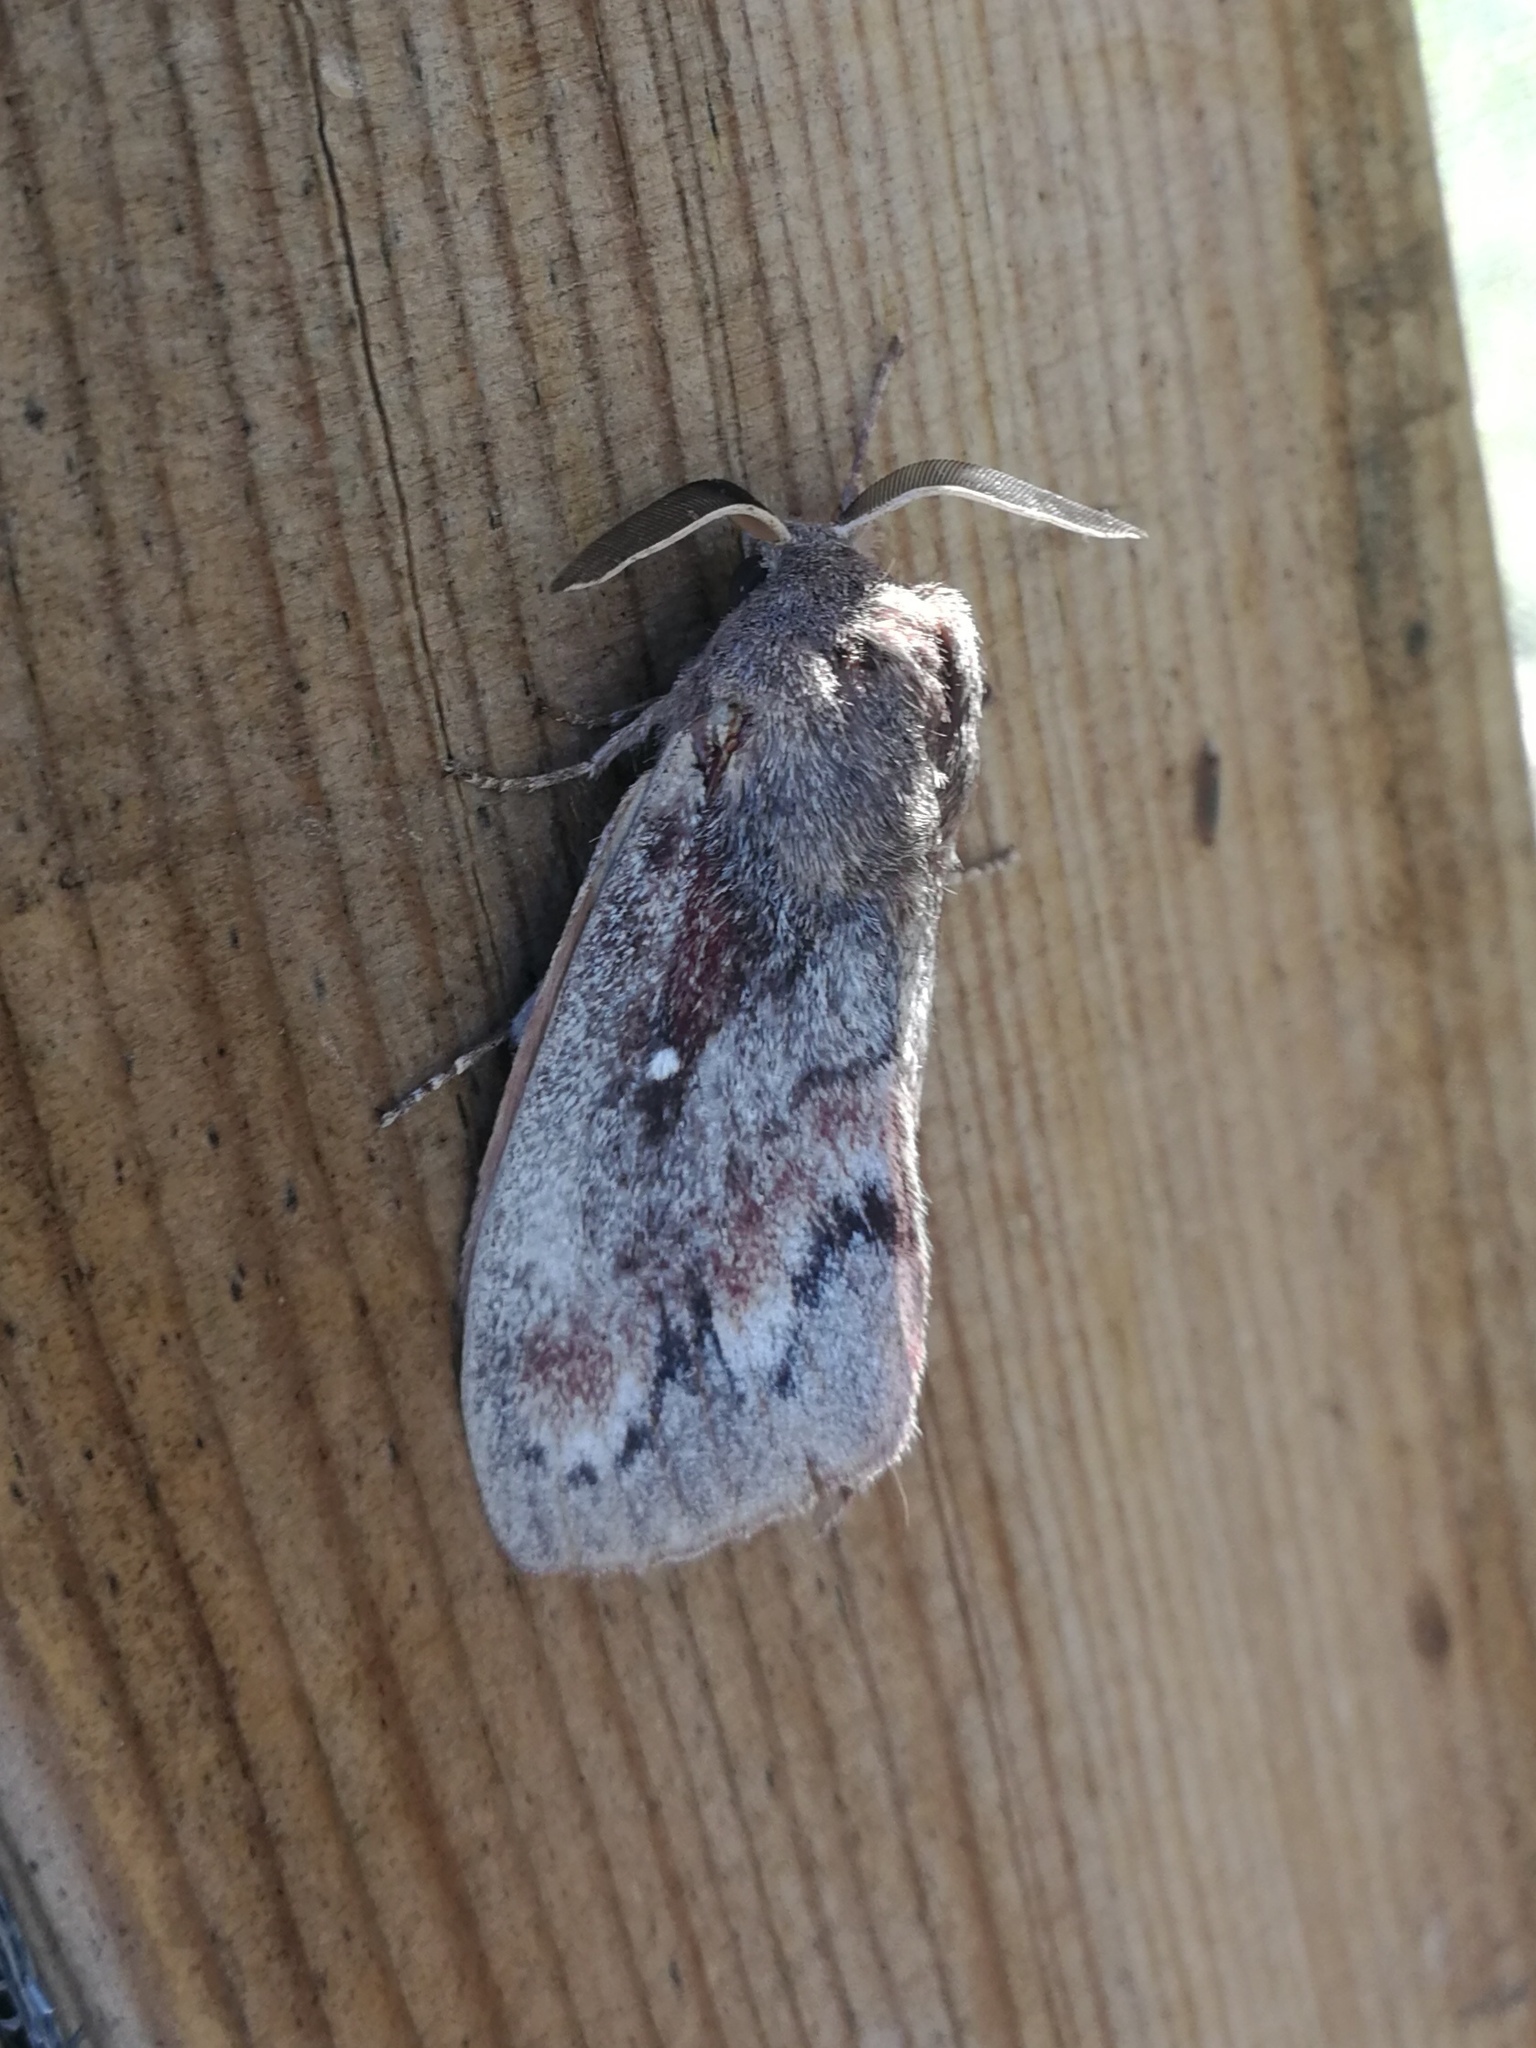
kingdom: Animalia
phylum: Arthropoda
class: Insecta
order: Lepidoptera
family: Lasiocampidae
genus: Dendrolimus
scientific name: Dendrolimus pini
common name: Pine-tree lappet
